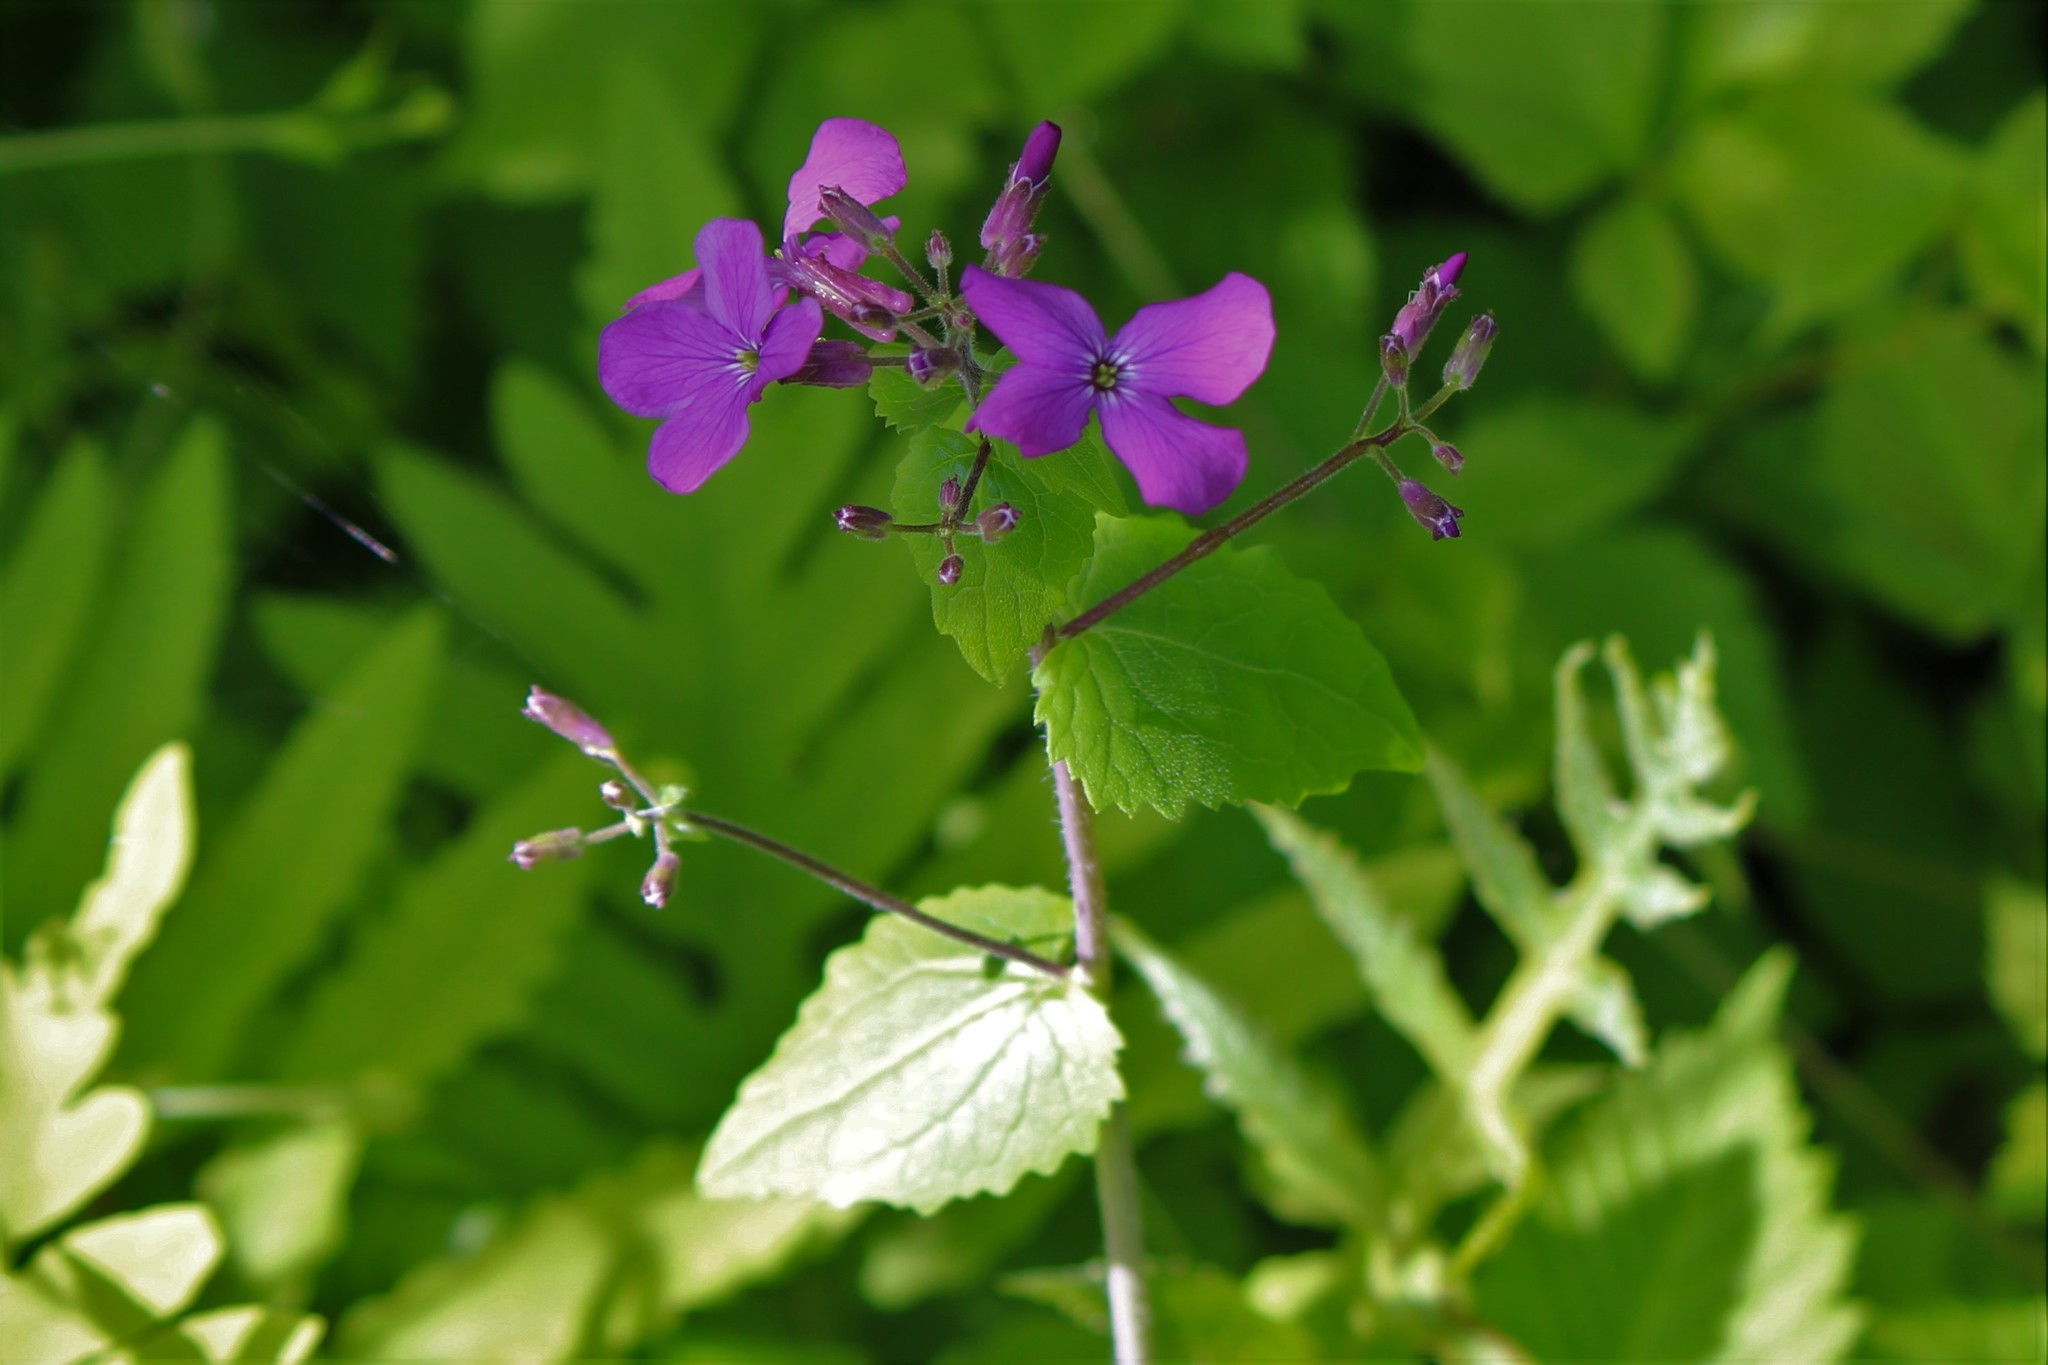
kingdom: Plantae
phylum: Tracheophyta
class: Magnoliopsida
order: Brassicales
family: Brassicaceae
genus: Lunaria
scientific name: Lunaria annua
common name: Honesty
